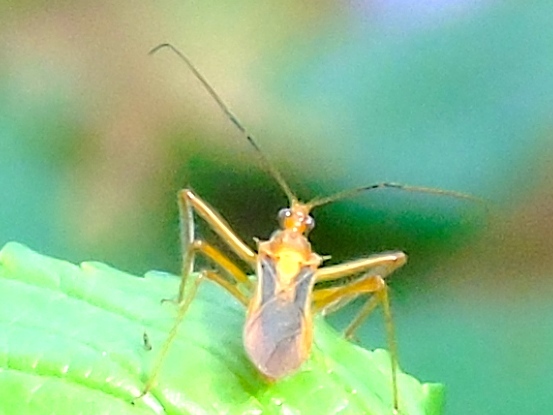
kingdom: Animalia
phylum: Arthropoda
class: Insecta
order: Hemiptera
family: Reduviidae
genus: Repipta
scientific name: Repipta
